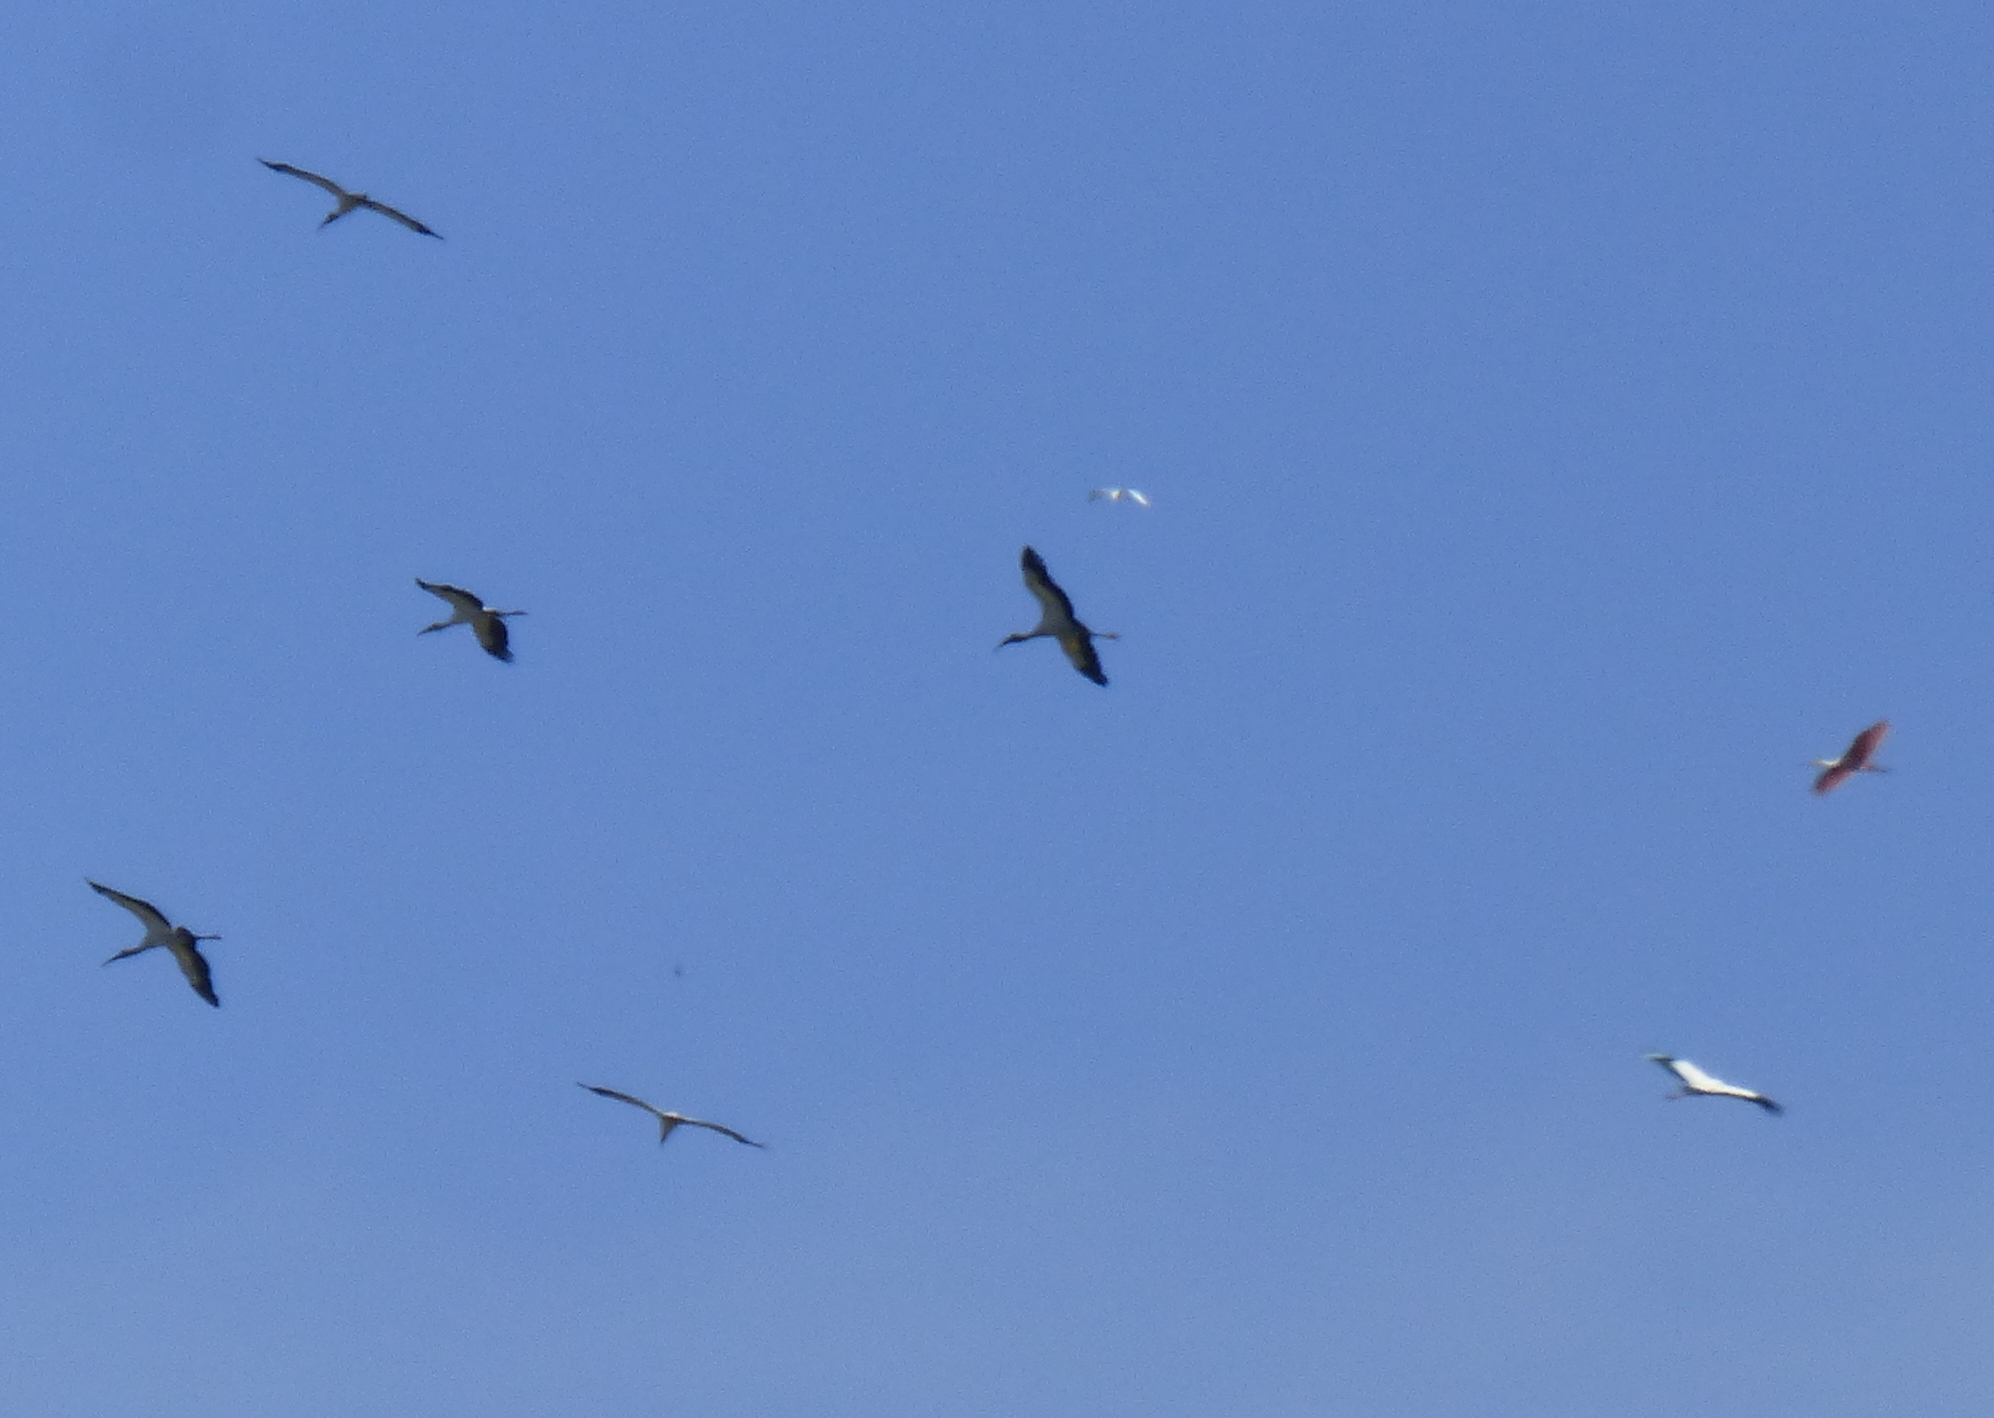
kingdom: Animalia
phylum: Chordata
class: Aves
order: Ciconiiformes
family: Ciconiidae
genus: Mycteria
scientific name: Mycteria americana
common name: Wood stork
